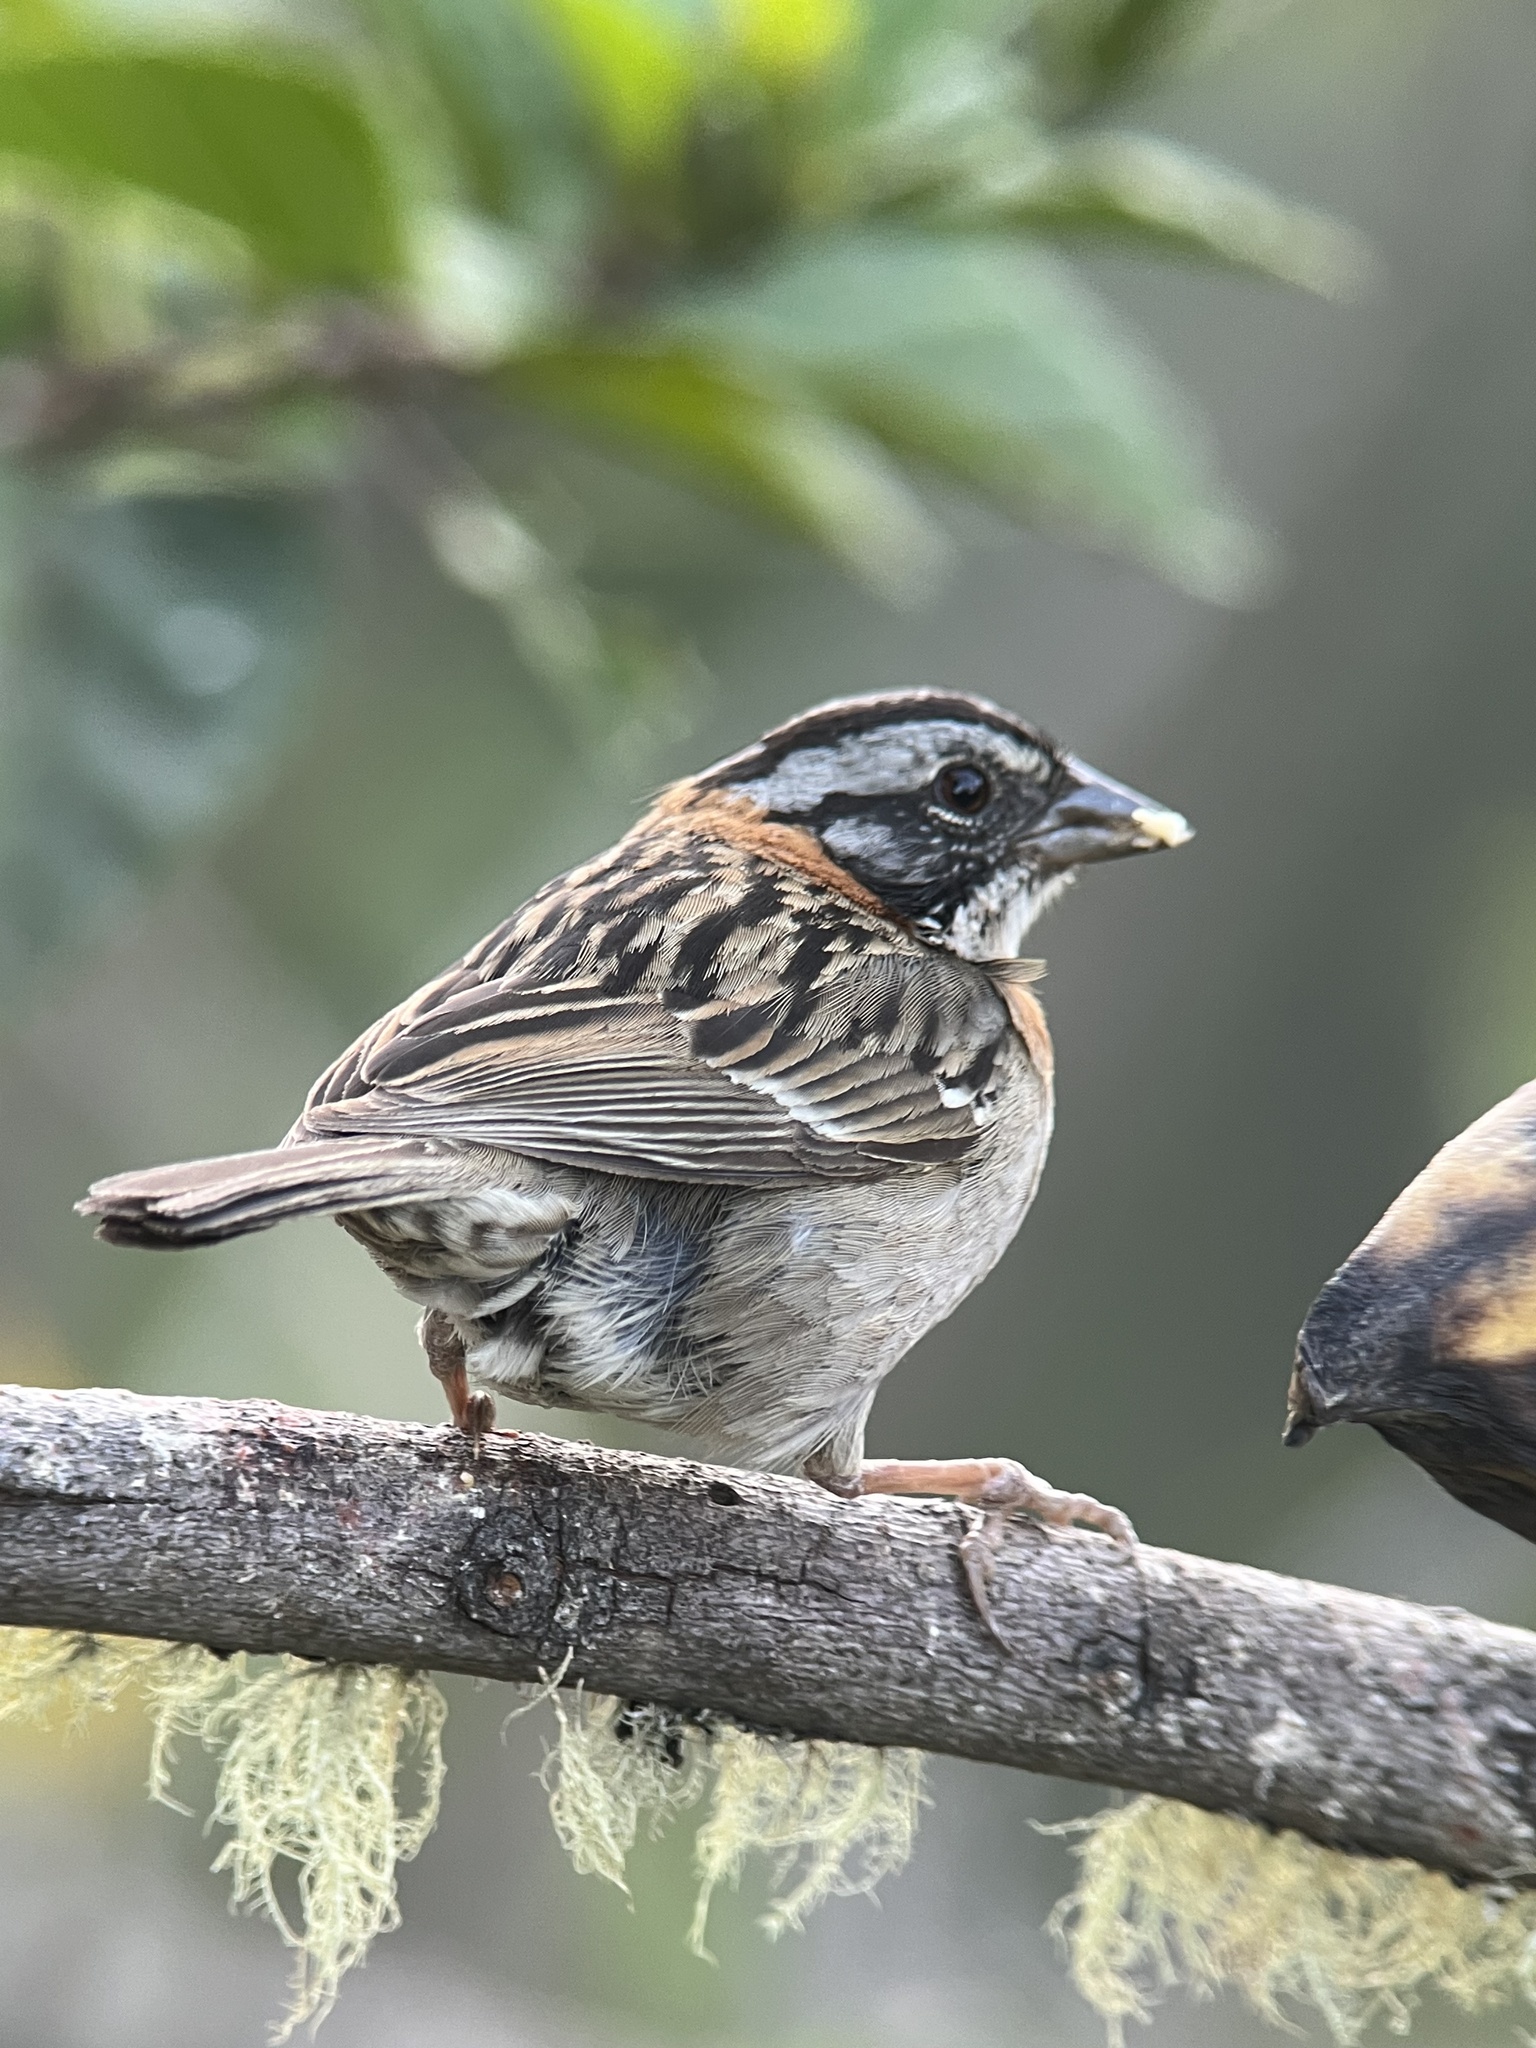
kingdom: Animalia
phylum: Chordata
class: Aves
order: Passeriformes
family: Passerellidae
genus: Zonotrichia
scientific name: Zonotrichia capensis
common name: Rufous-collared sparrow
